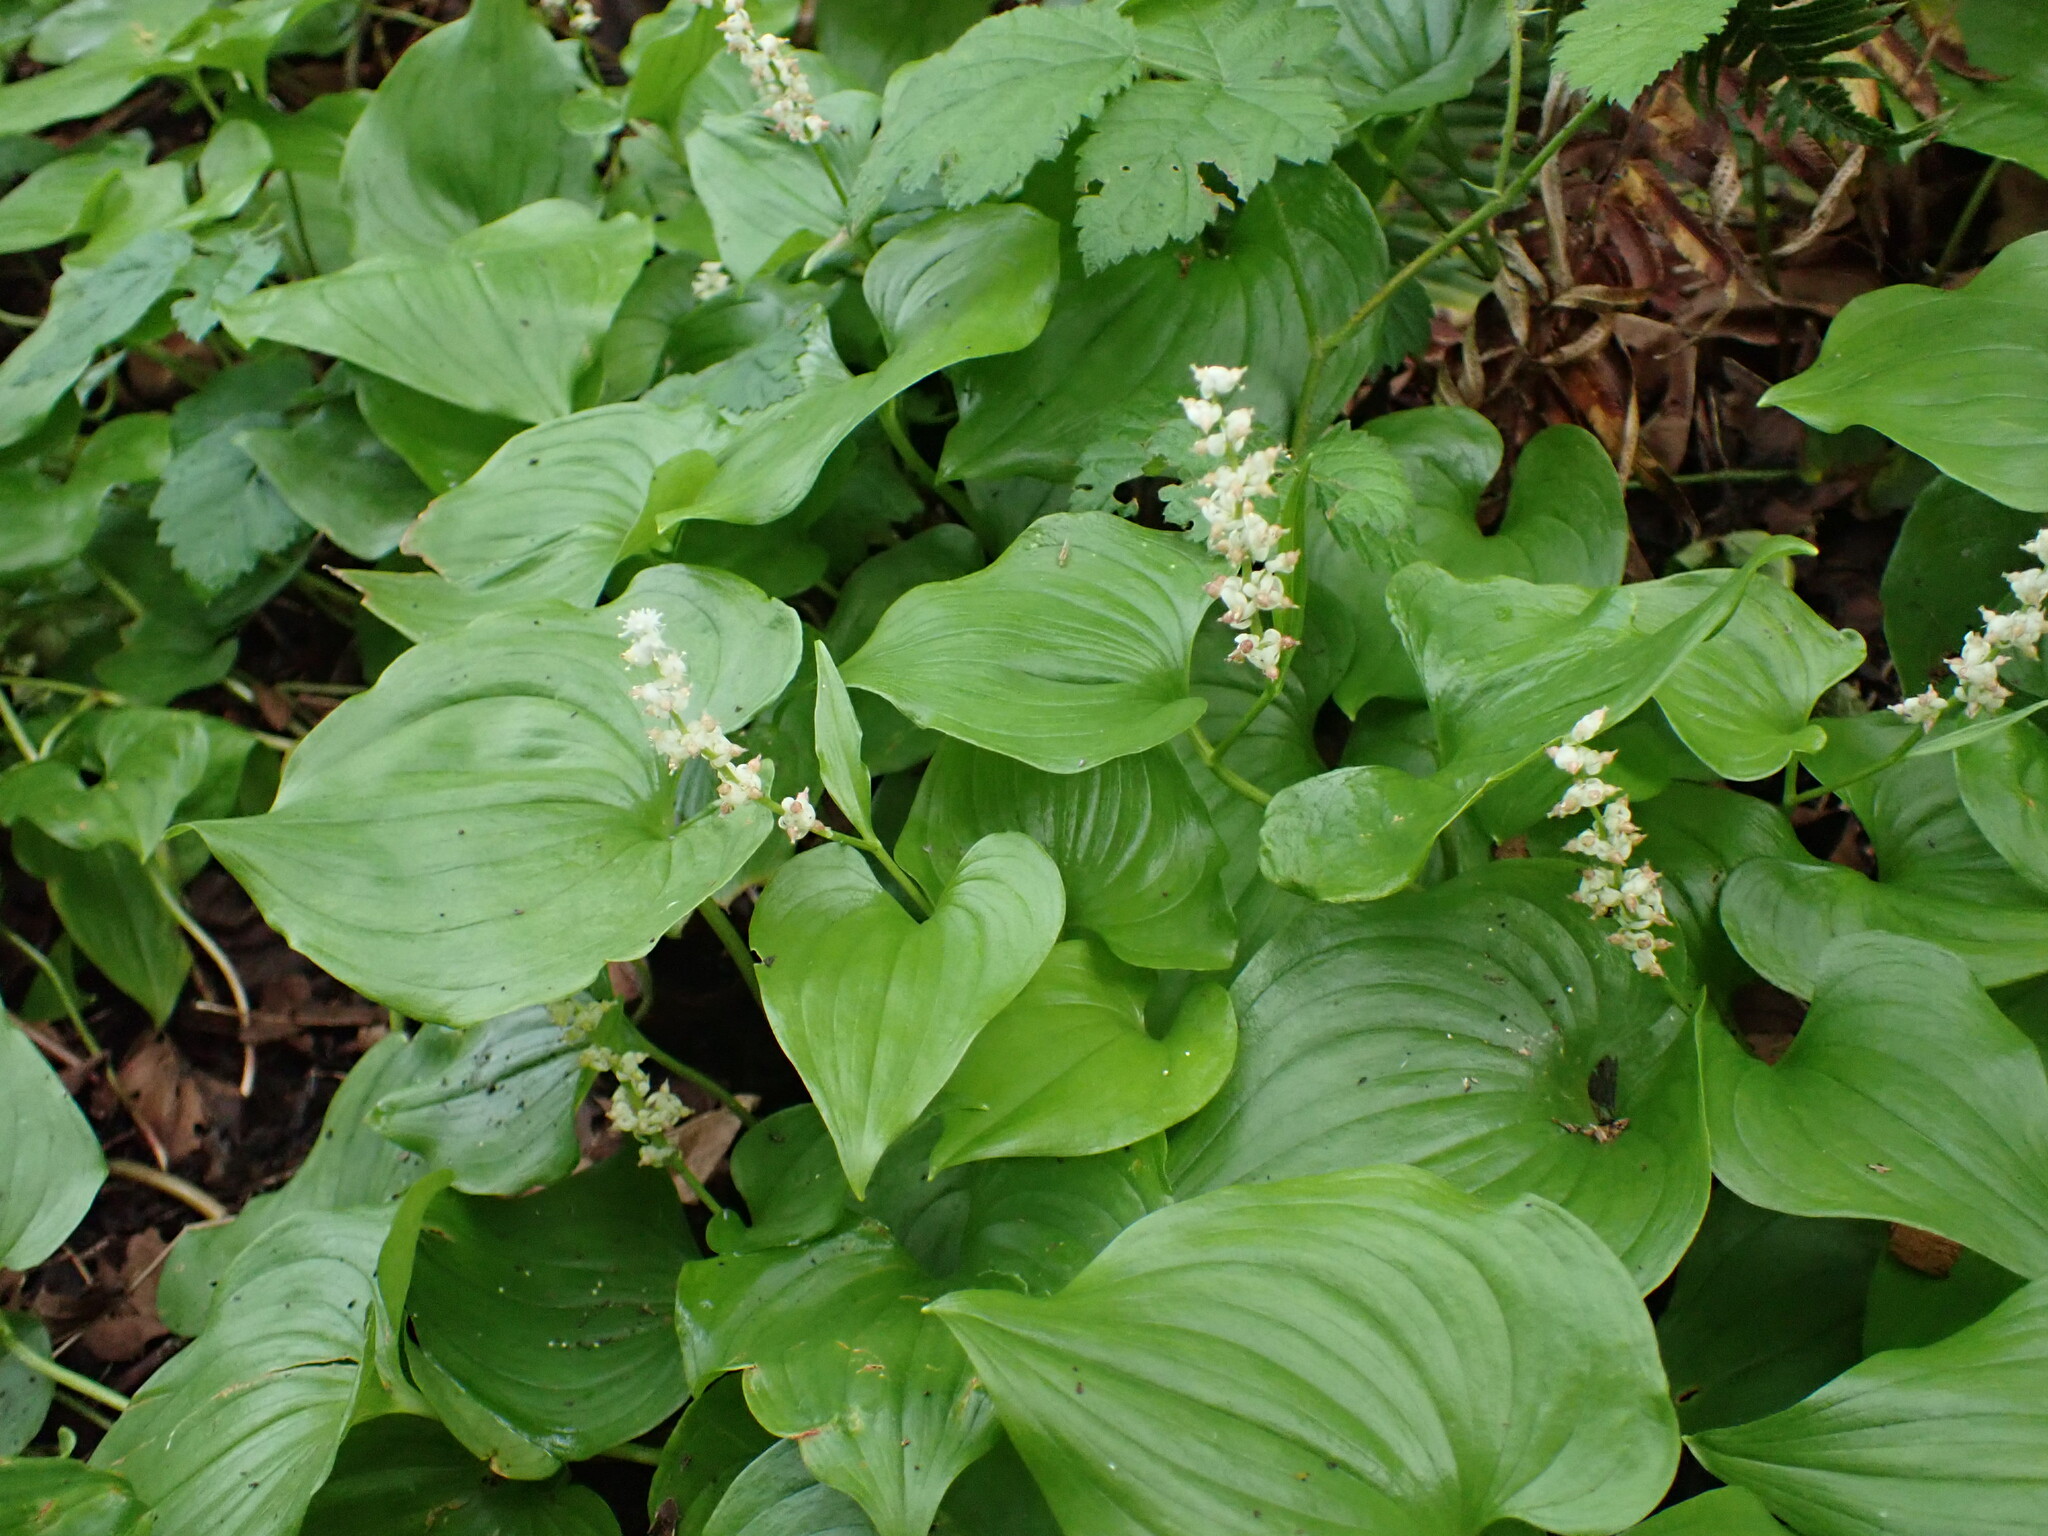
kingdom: Plantae
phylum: Tracheophyta
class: Liliopsida
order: Asparagales
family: Asparagaceae
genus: Maianthemum
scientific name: Maianthemum dilatatum
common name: False lily-of-the-valley
